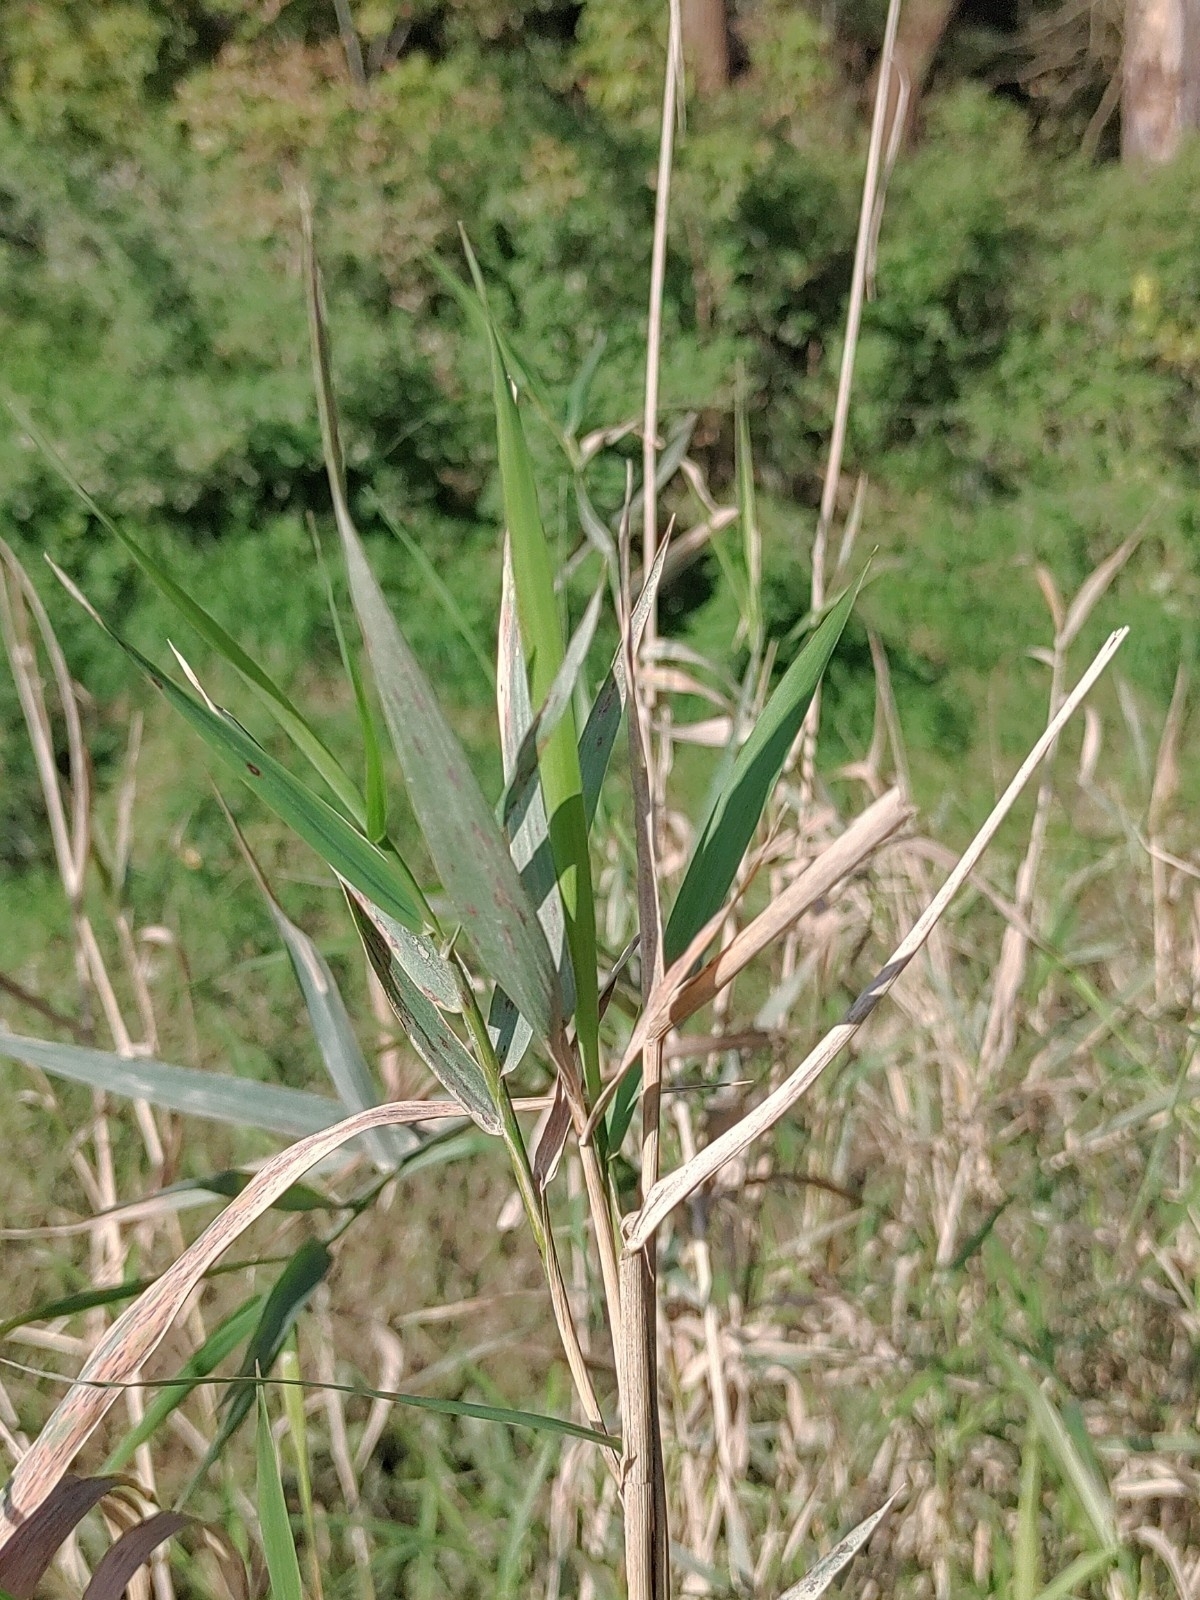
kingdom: Plantae
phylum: Tracheophyta
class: Liliopsida
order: Poales
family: Poaceae
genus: Phragmites
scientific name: Phragmites australis
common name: Common reed
